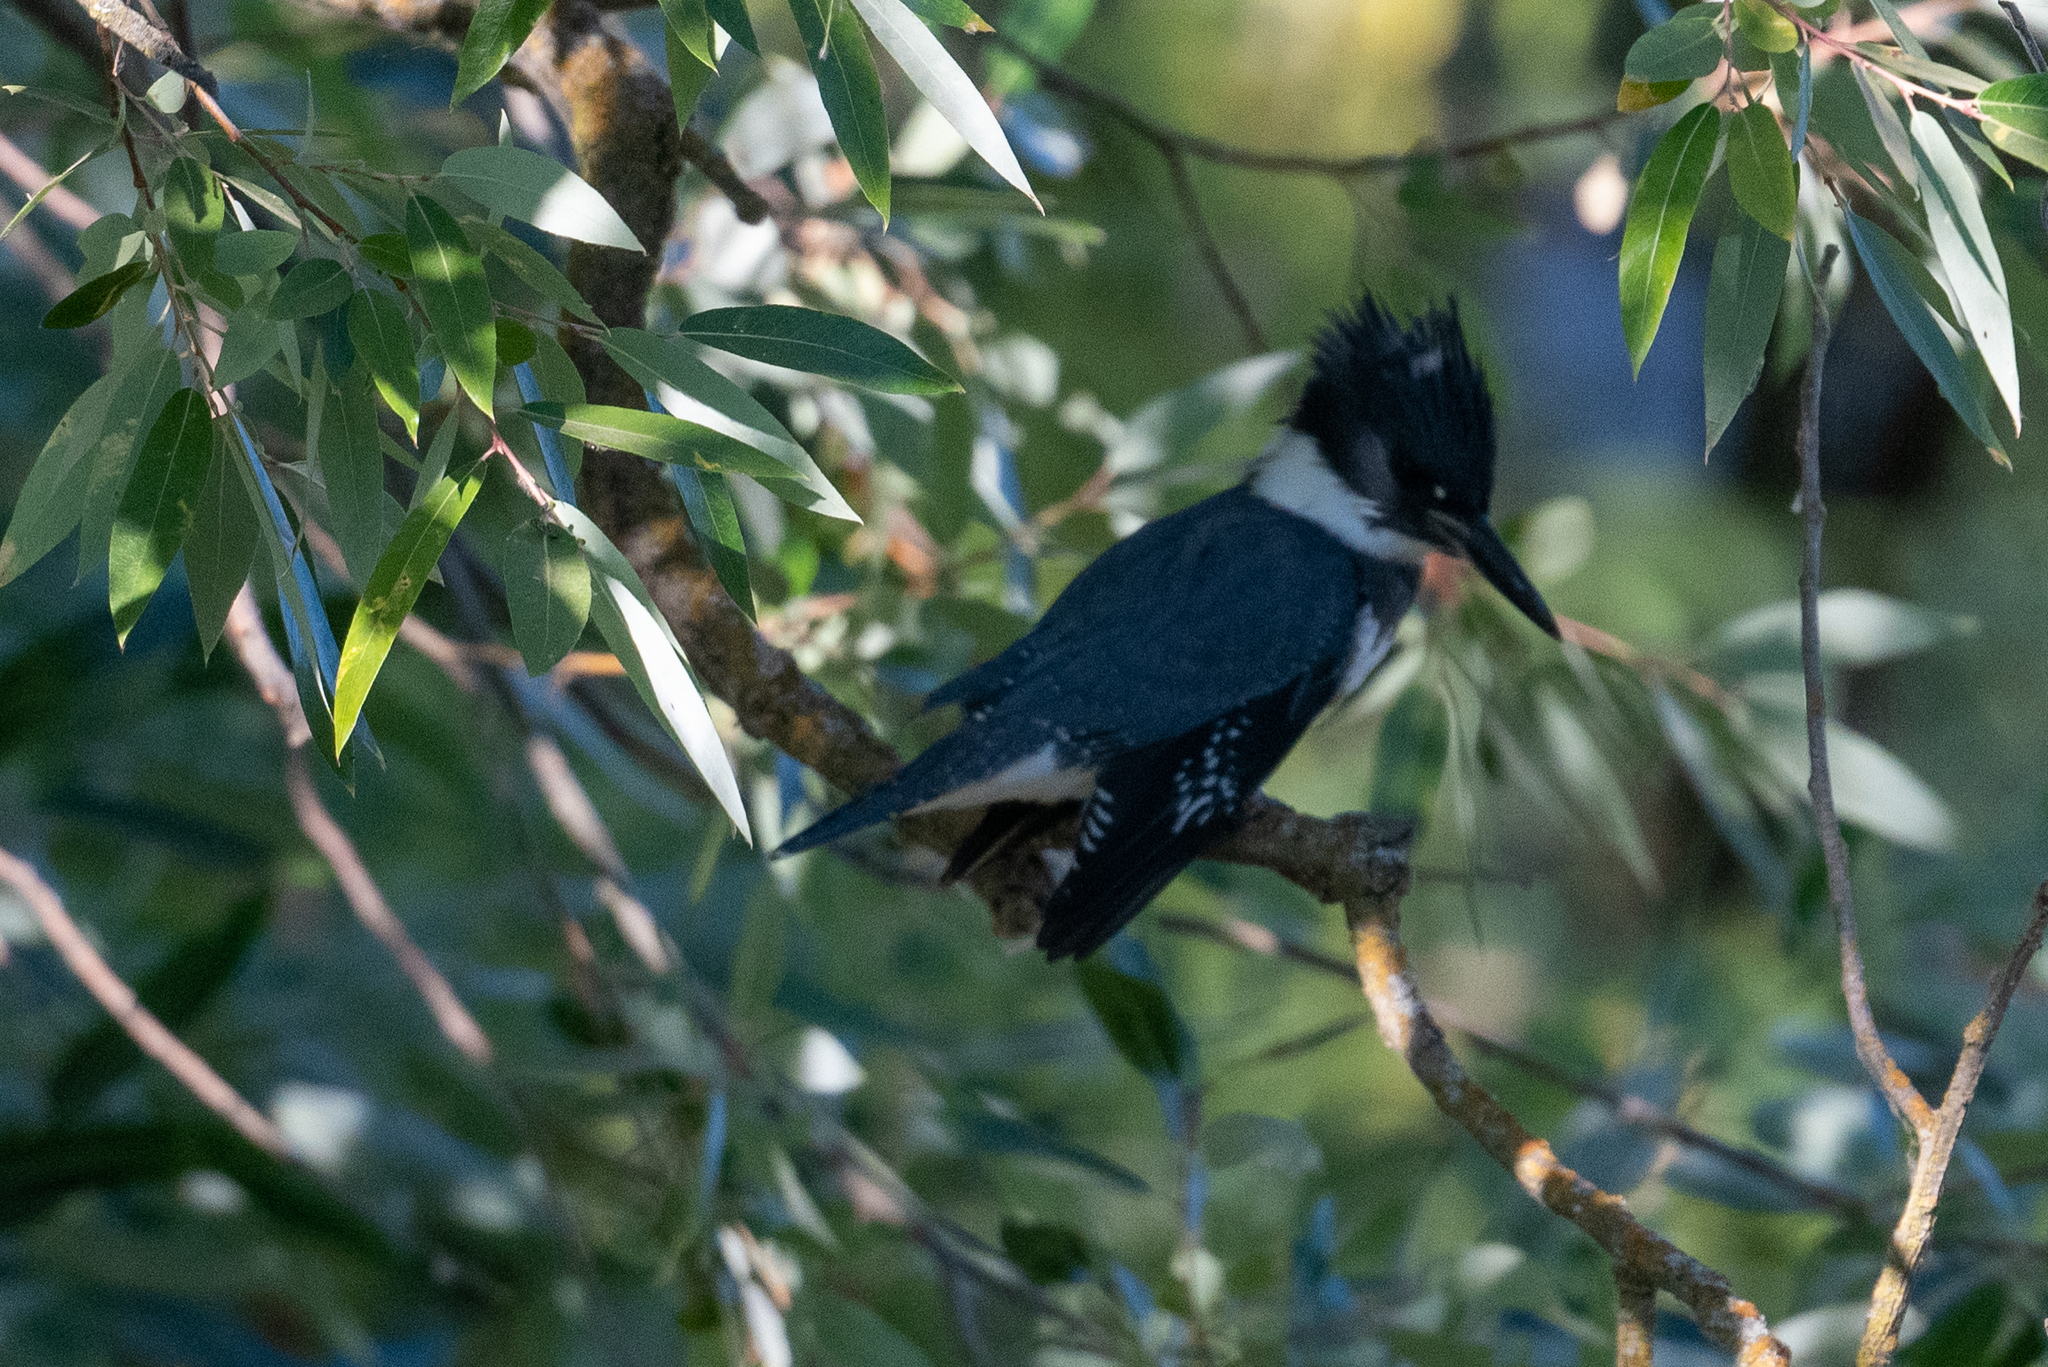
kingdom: Animalia
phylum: Chordata
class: Aves
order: Coraciiformes
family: Alcedinidae
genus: Megaceryle
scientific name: Megaceryle alcyon
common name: Belted kingfisher
